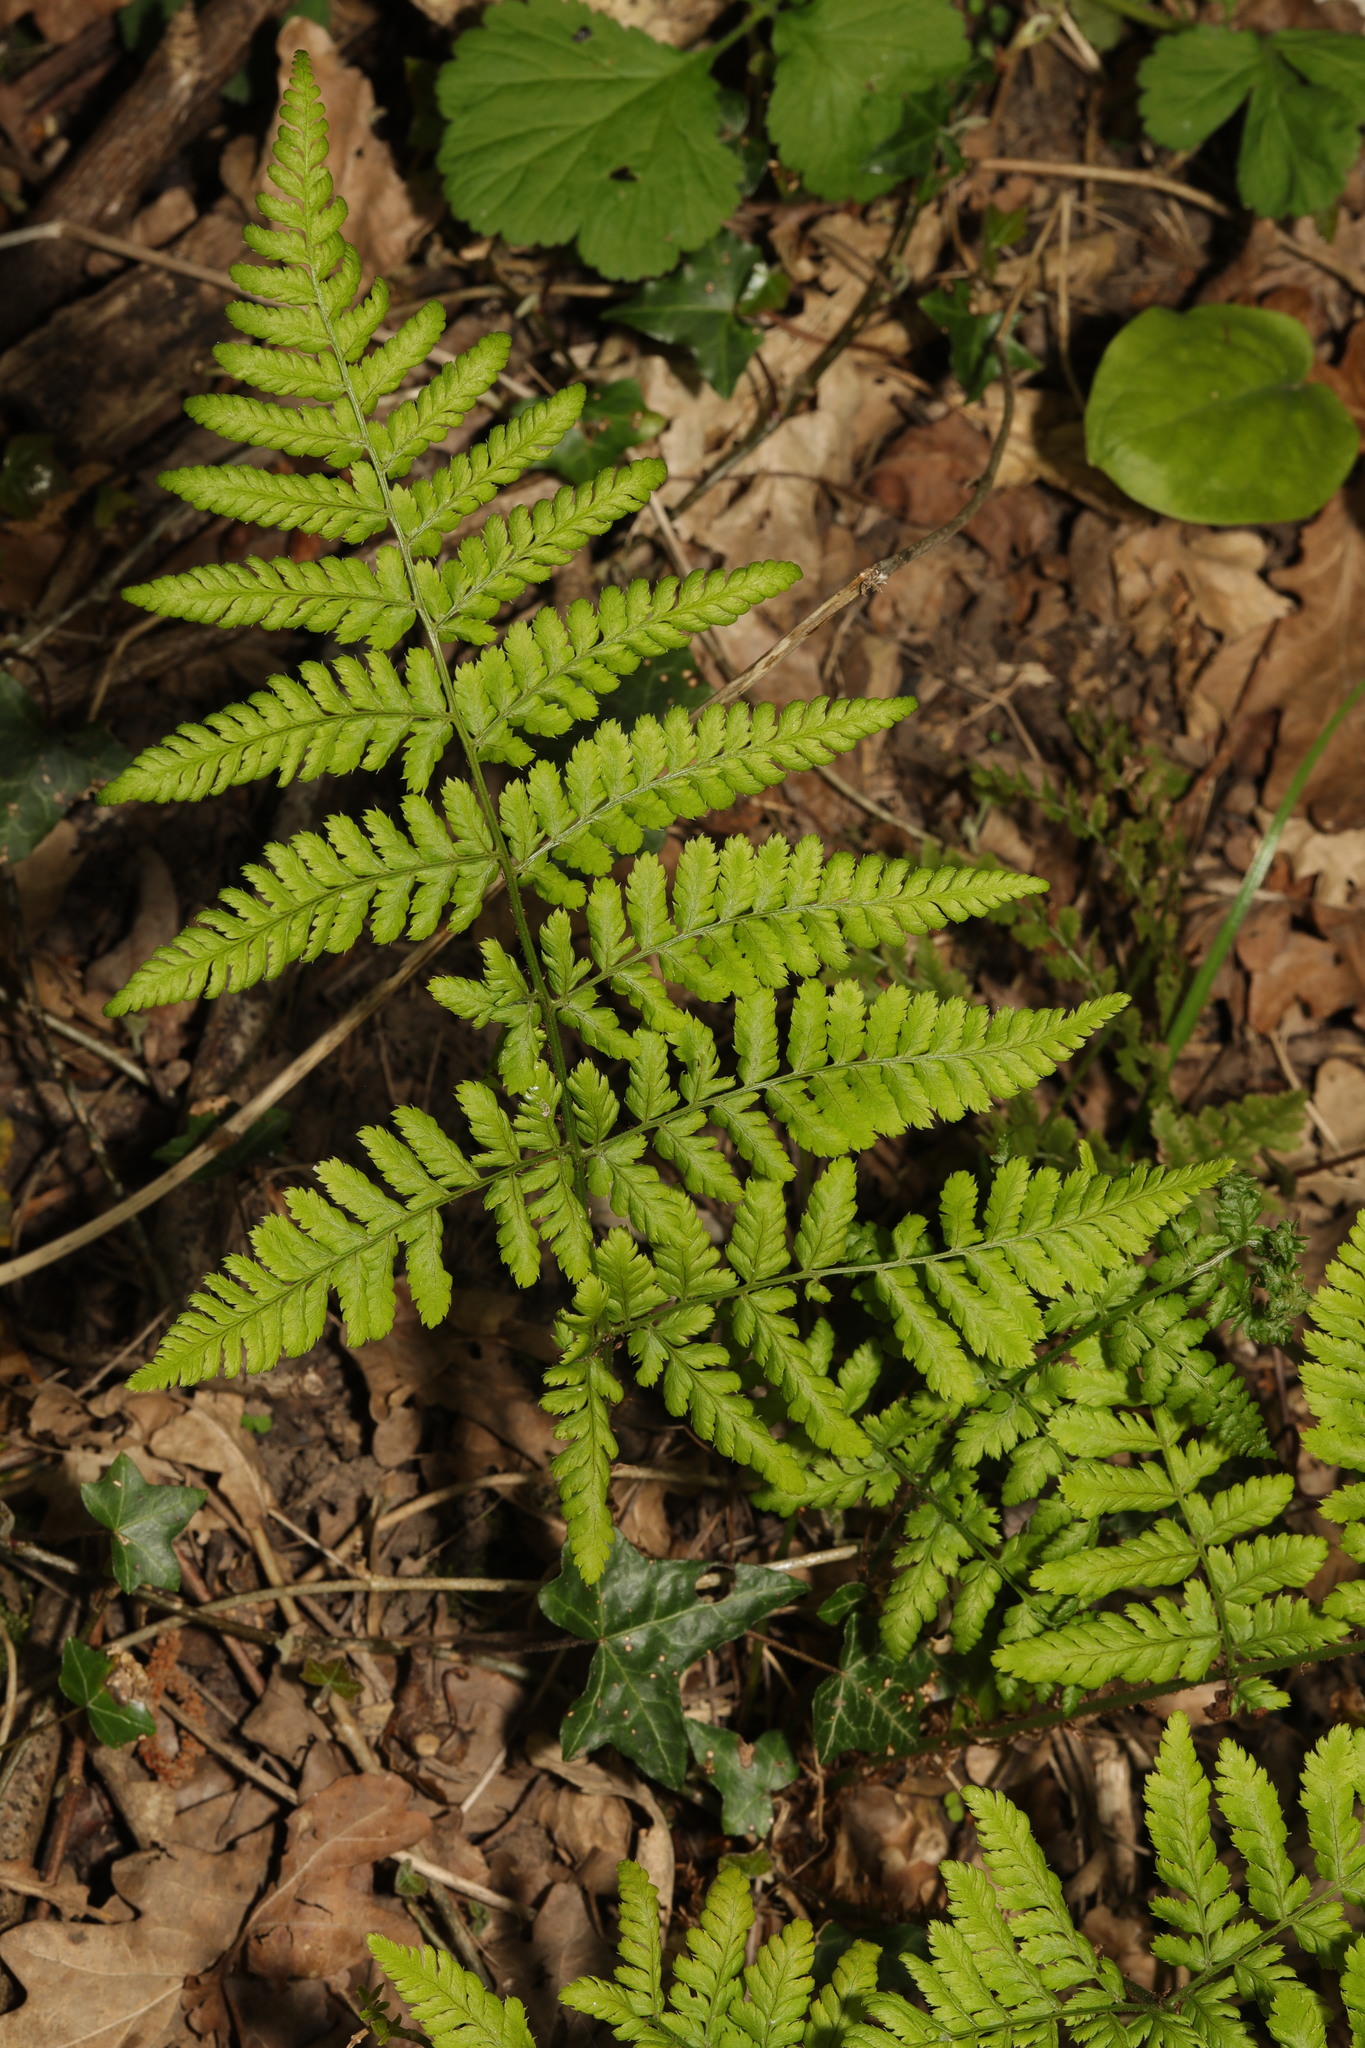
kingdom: Plantae
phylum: Tracheophyta
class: Polypodiopsida
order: Polypodiales
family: Dryopteridaceae
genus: Dryopteris
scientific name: Dryopteris dilatata
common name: Broad buckler-fern
